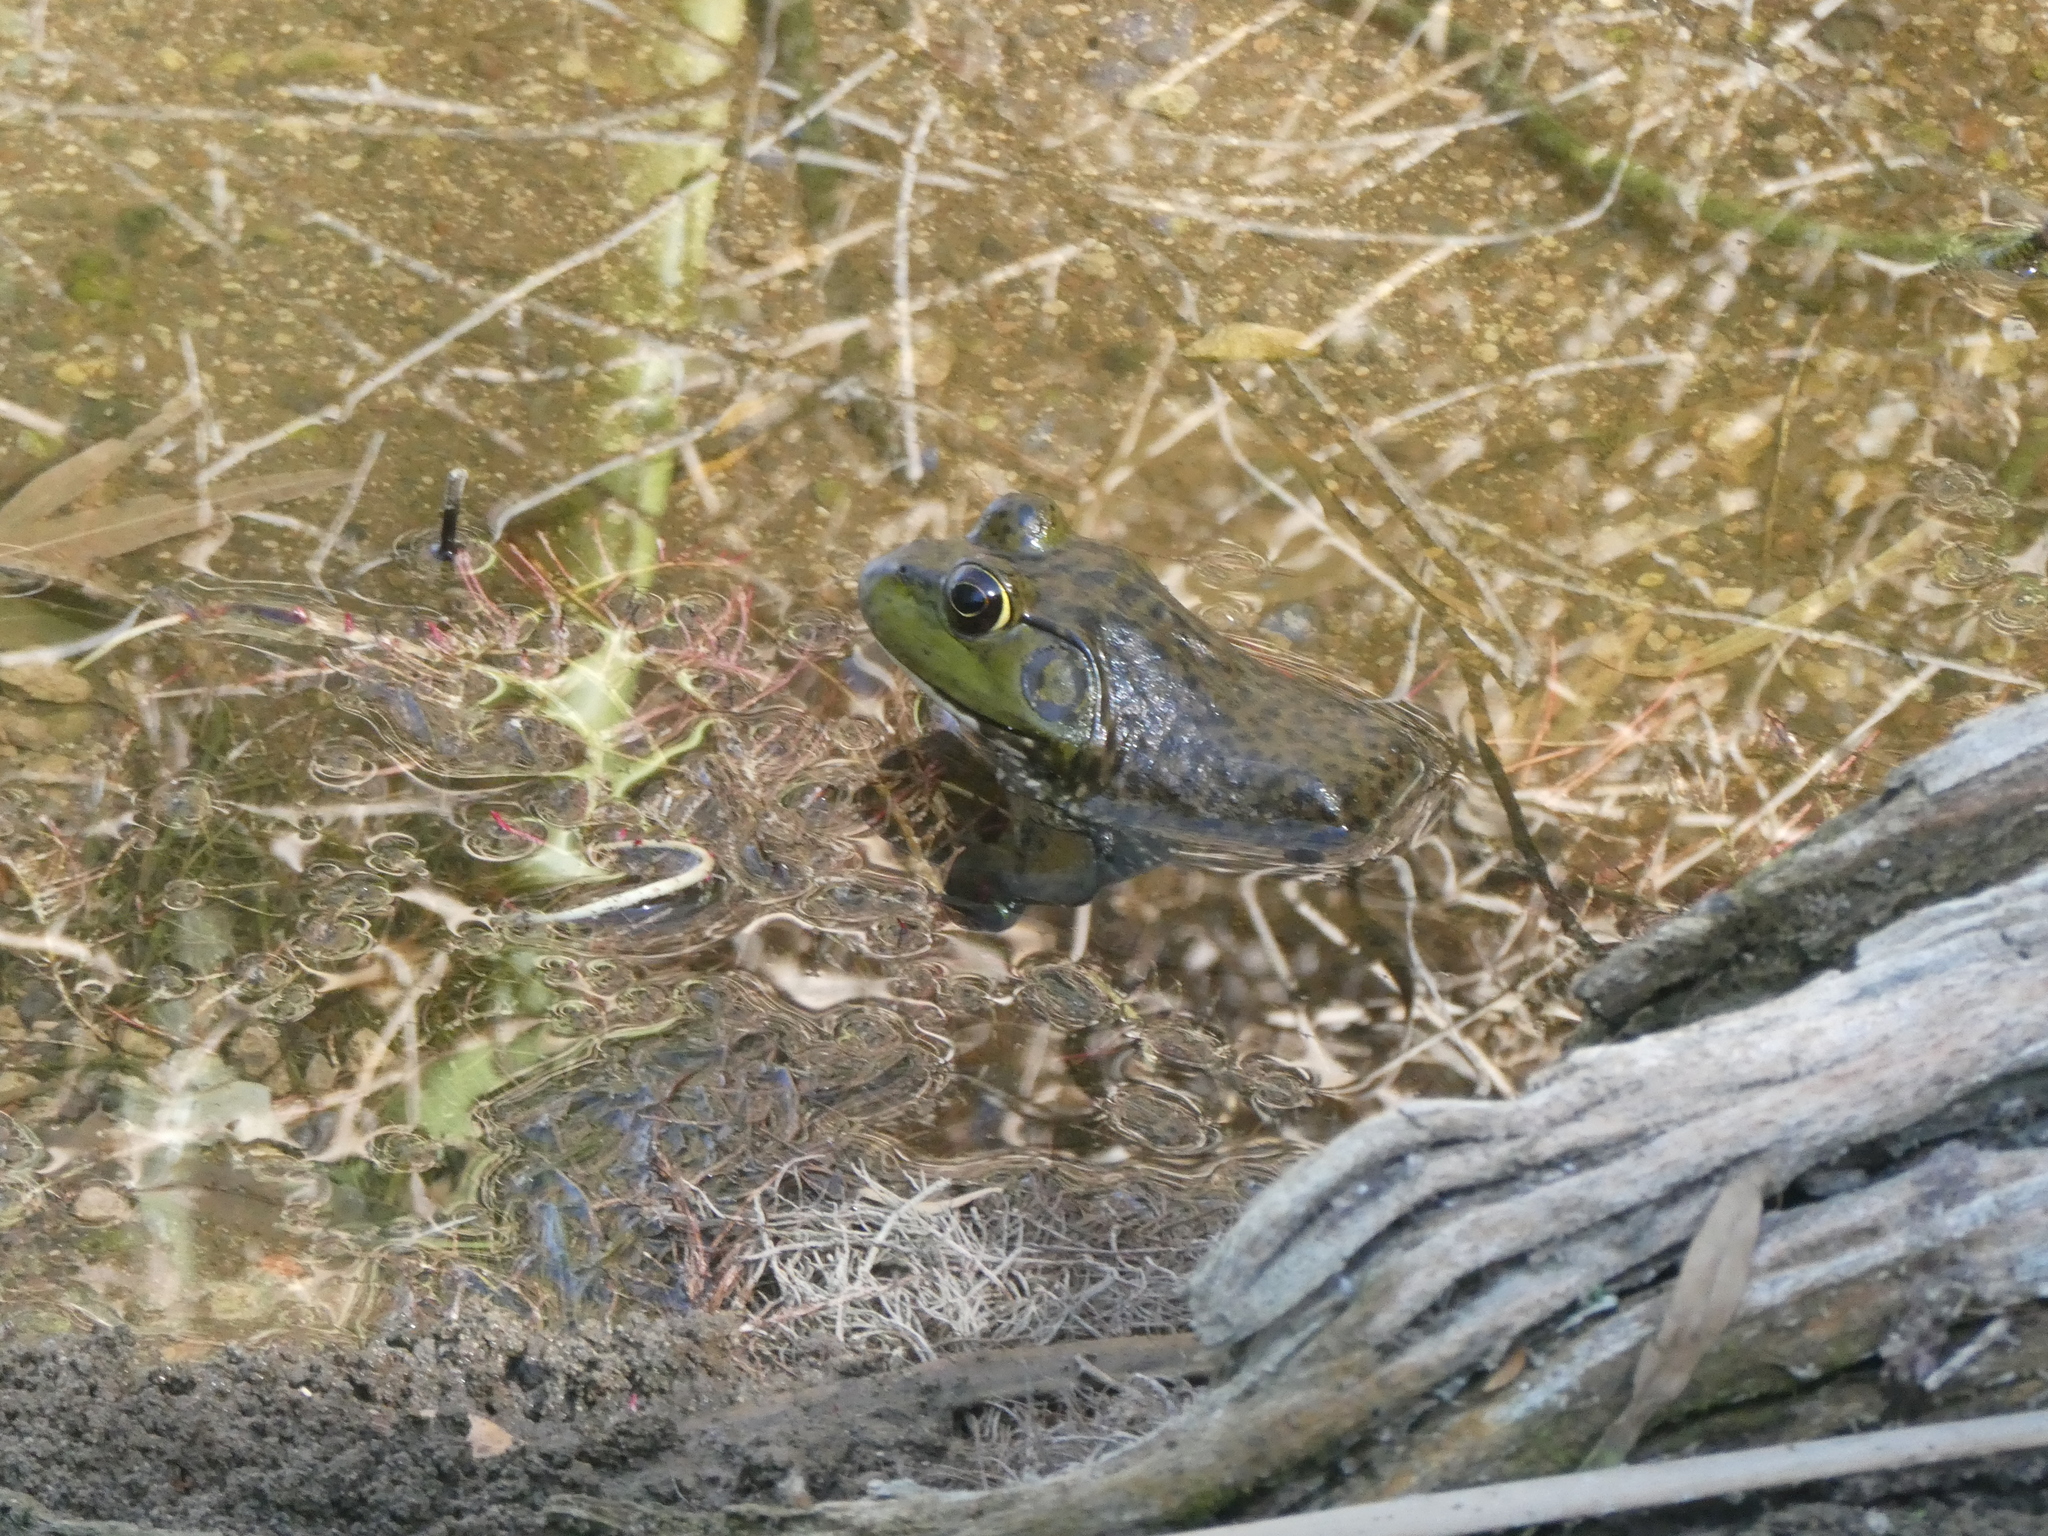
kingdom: Animalia
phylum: Chordata
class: Amphibia
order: Anura
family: Ranidae
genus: Lithobates
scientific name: Lithobates catesbeianus
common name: American bullfrog
